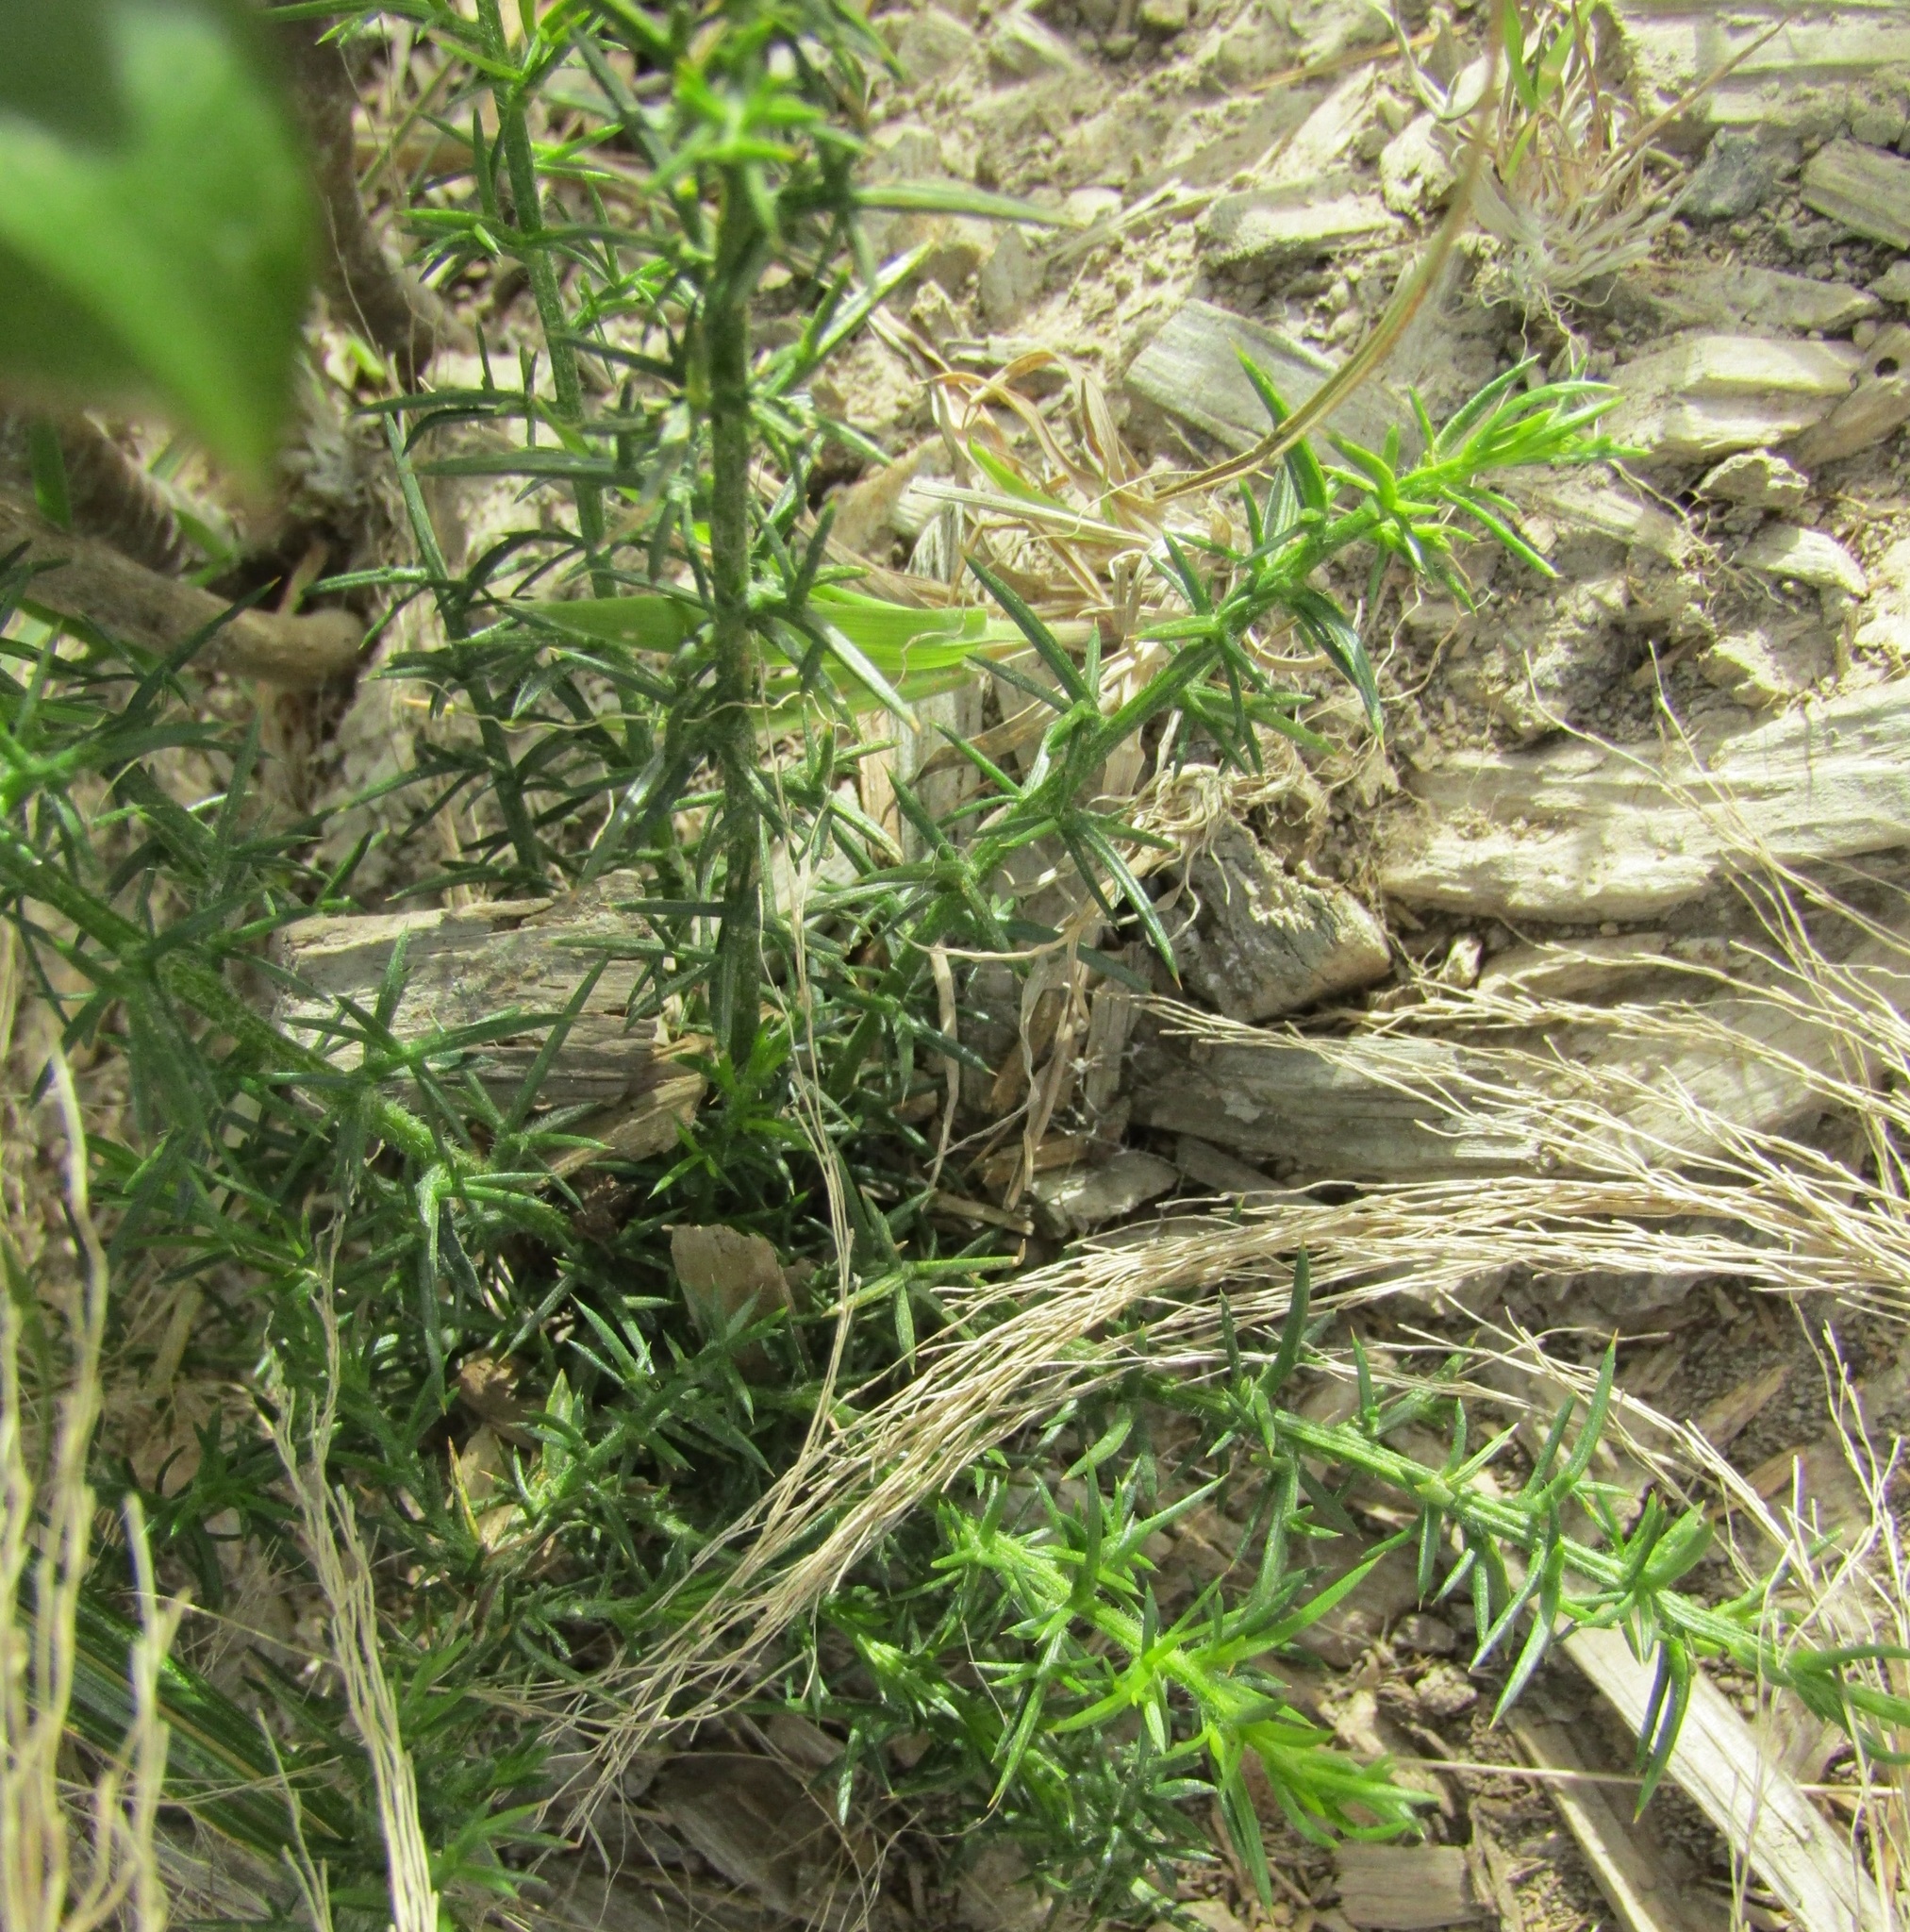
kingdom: Plantae
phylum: Tracheophyta
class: Magnoliopsida
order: Fabales
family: Fabaceae
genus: Ulex
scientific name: Ulex europaeus
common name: Common gorse
